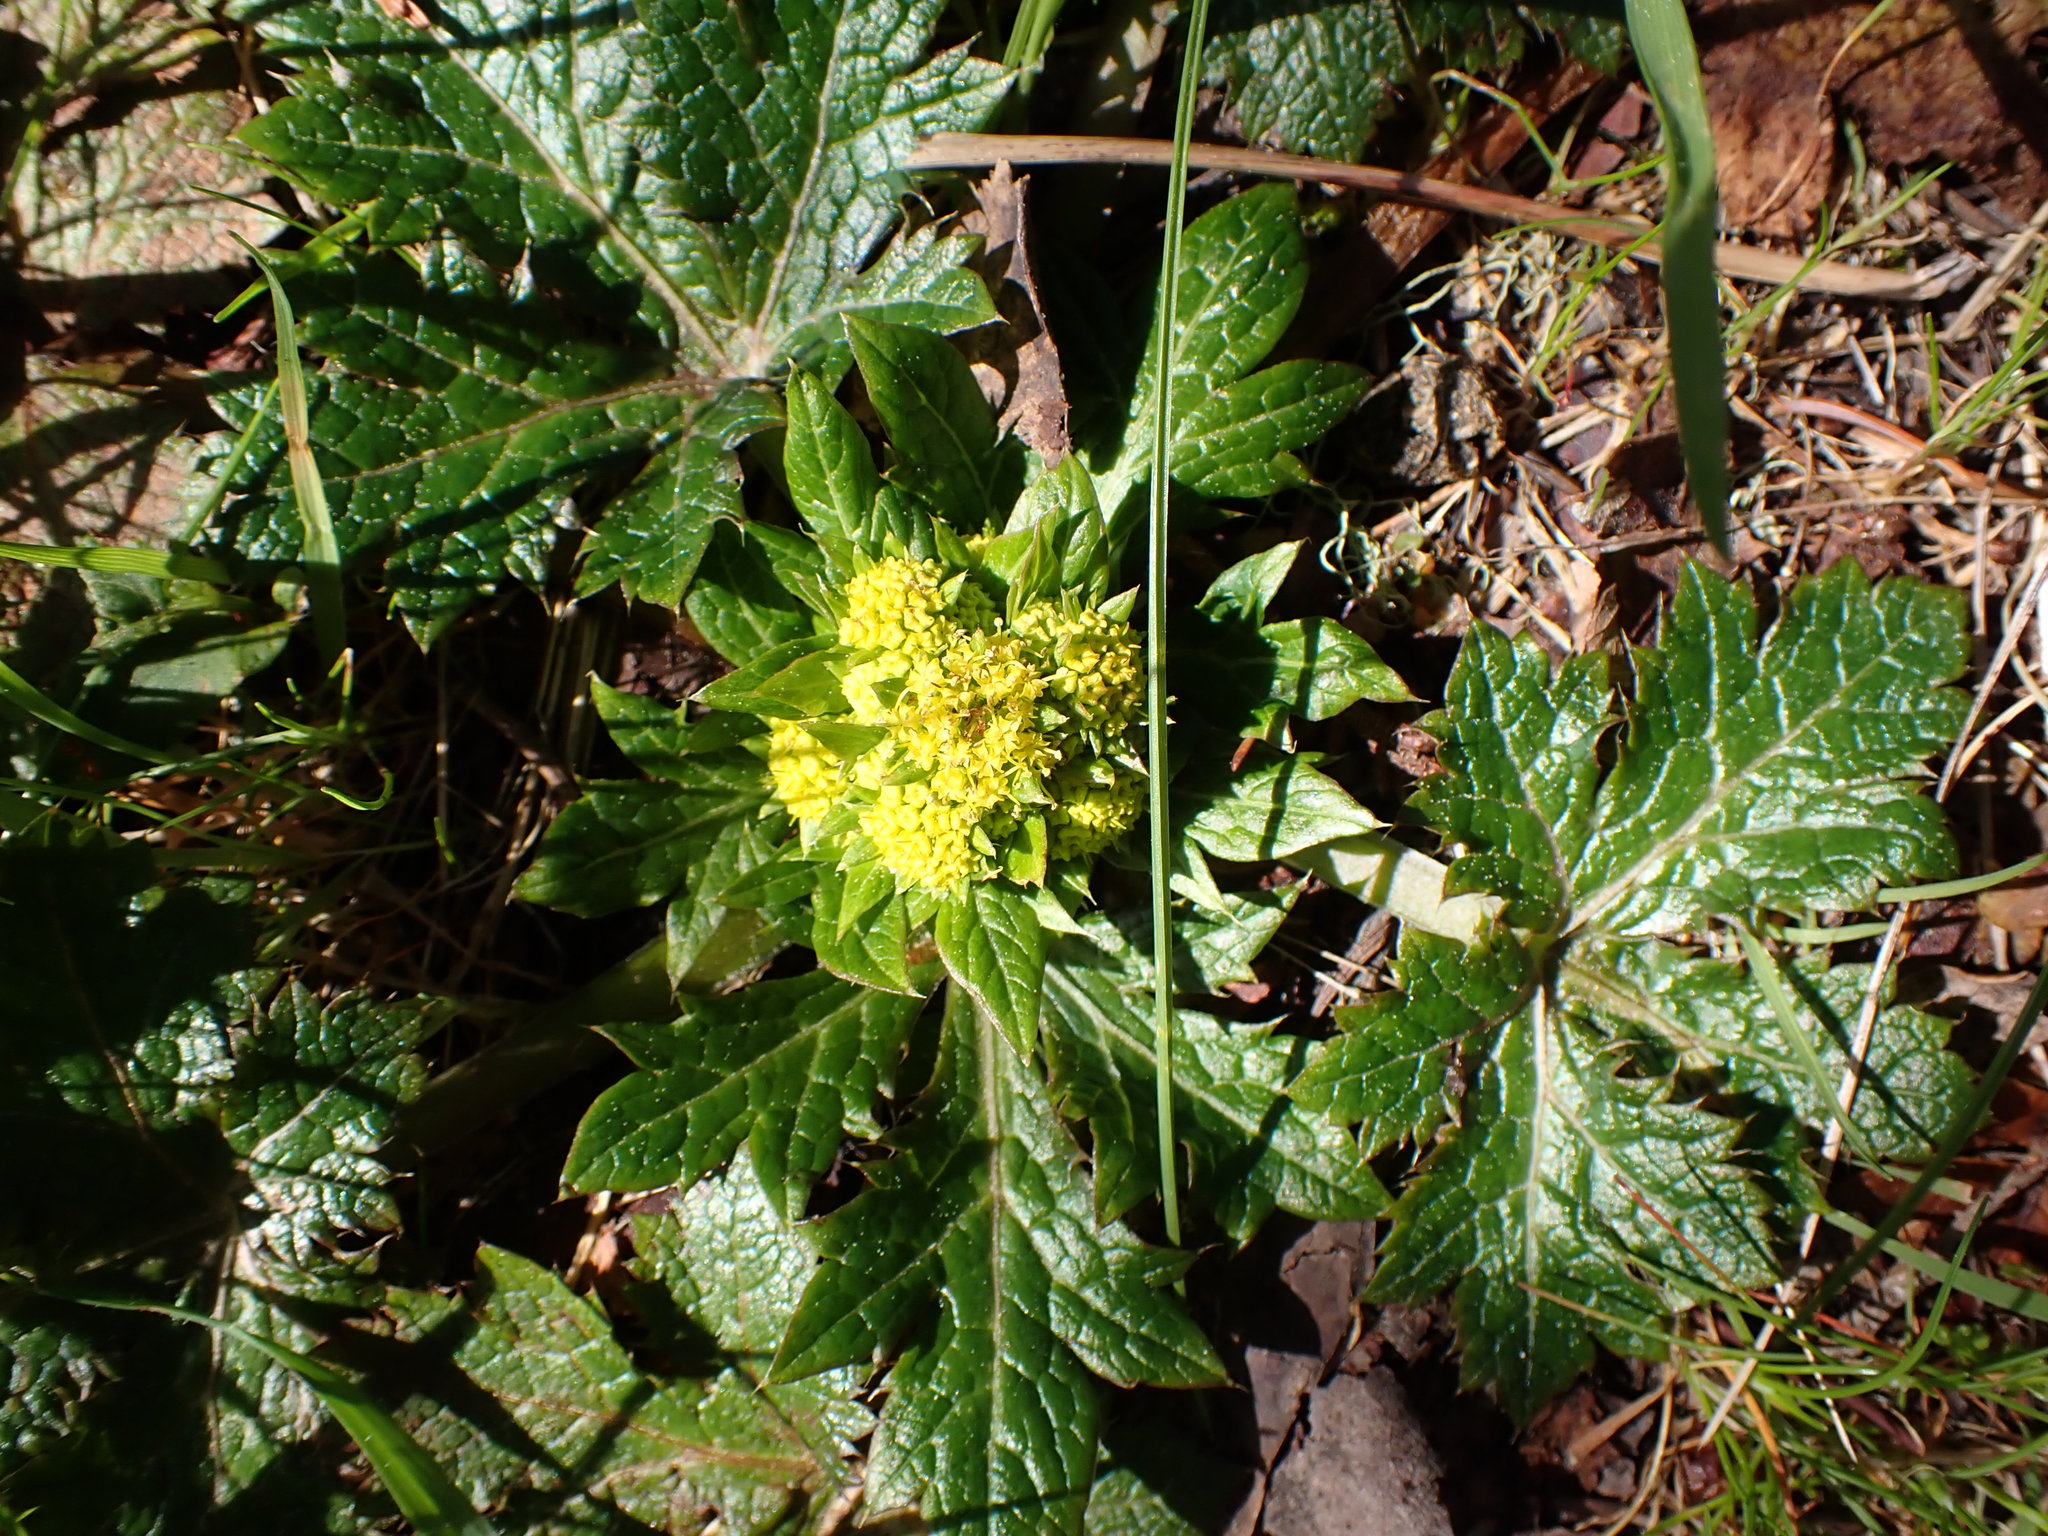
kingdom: Plantae
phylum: Tracheophyta
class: Magnoliopsida
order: Apiales
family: Apiaceae
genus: Sanicula
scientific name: Sanicula crassicaulis
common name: Western snakeroot
